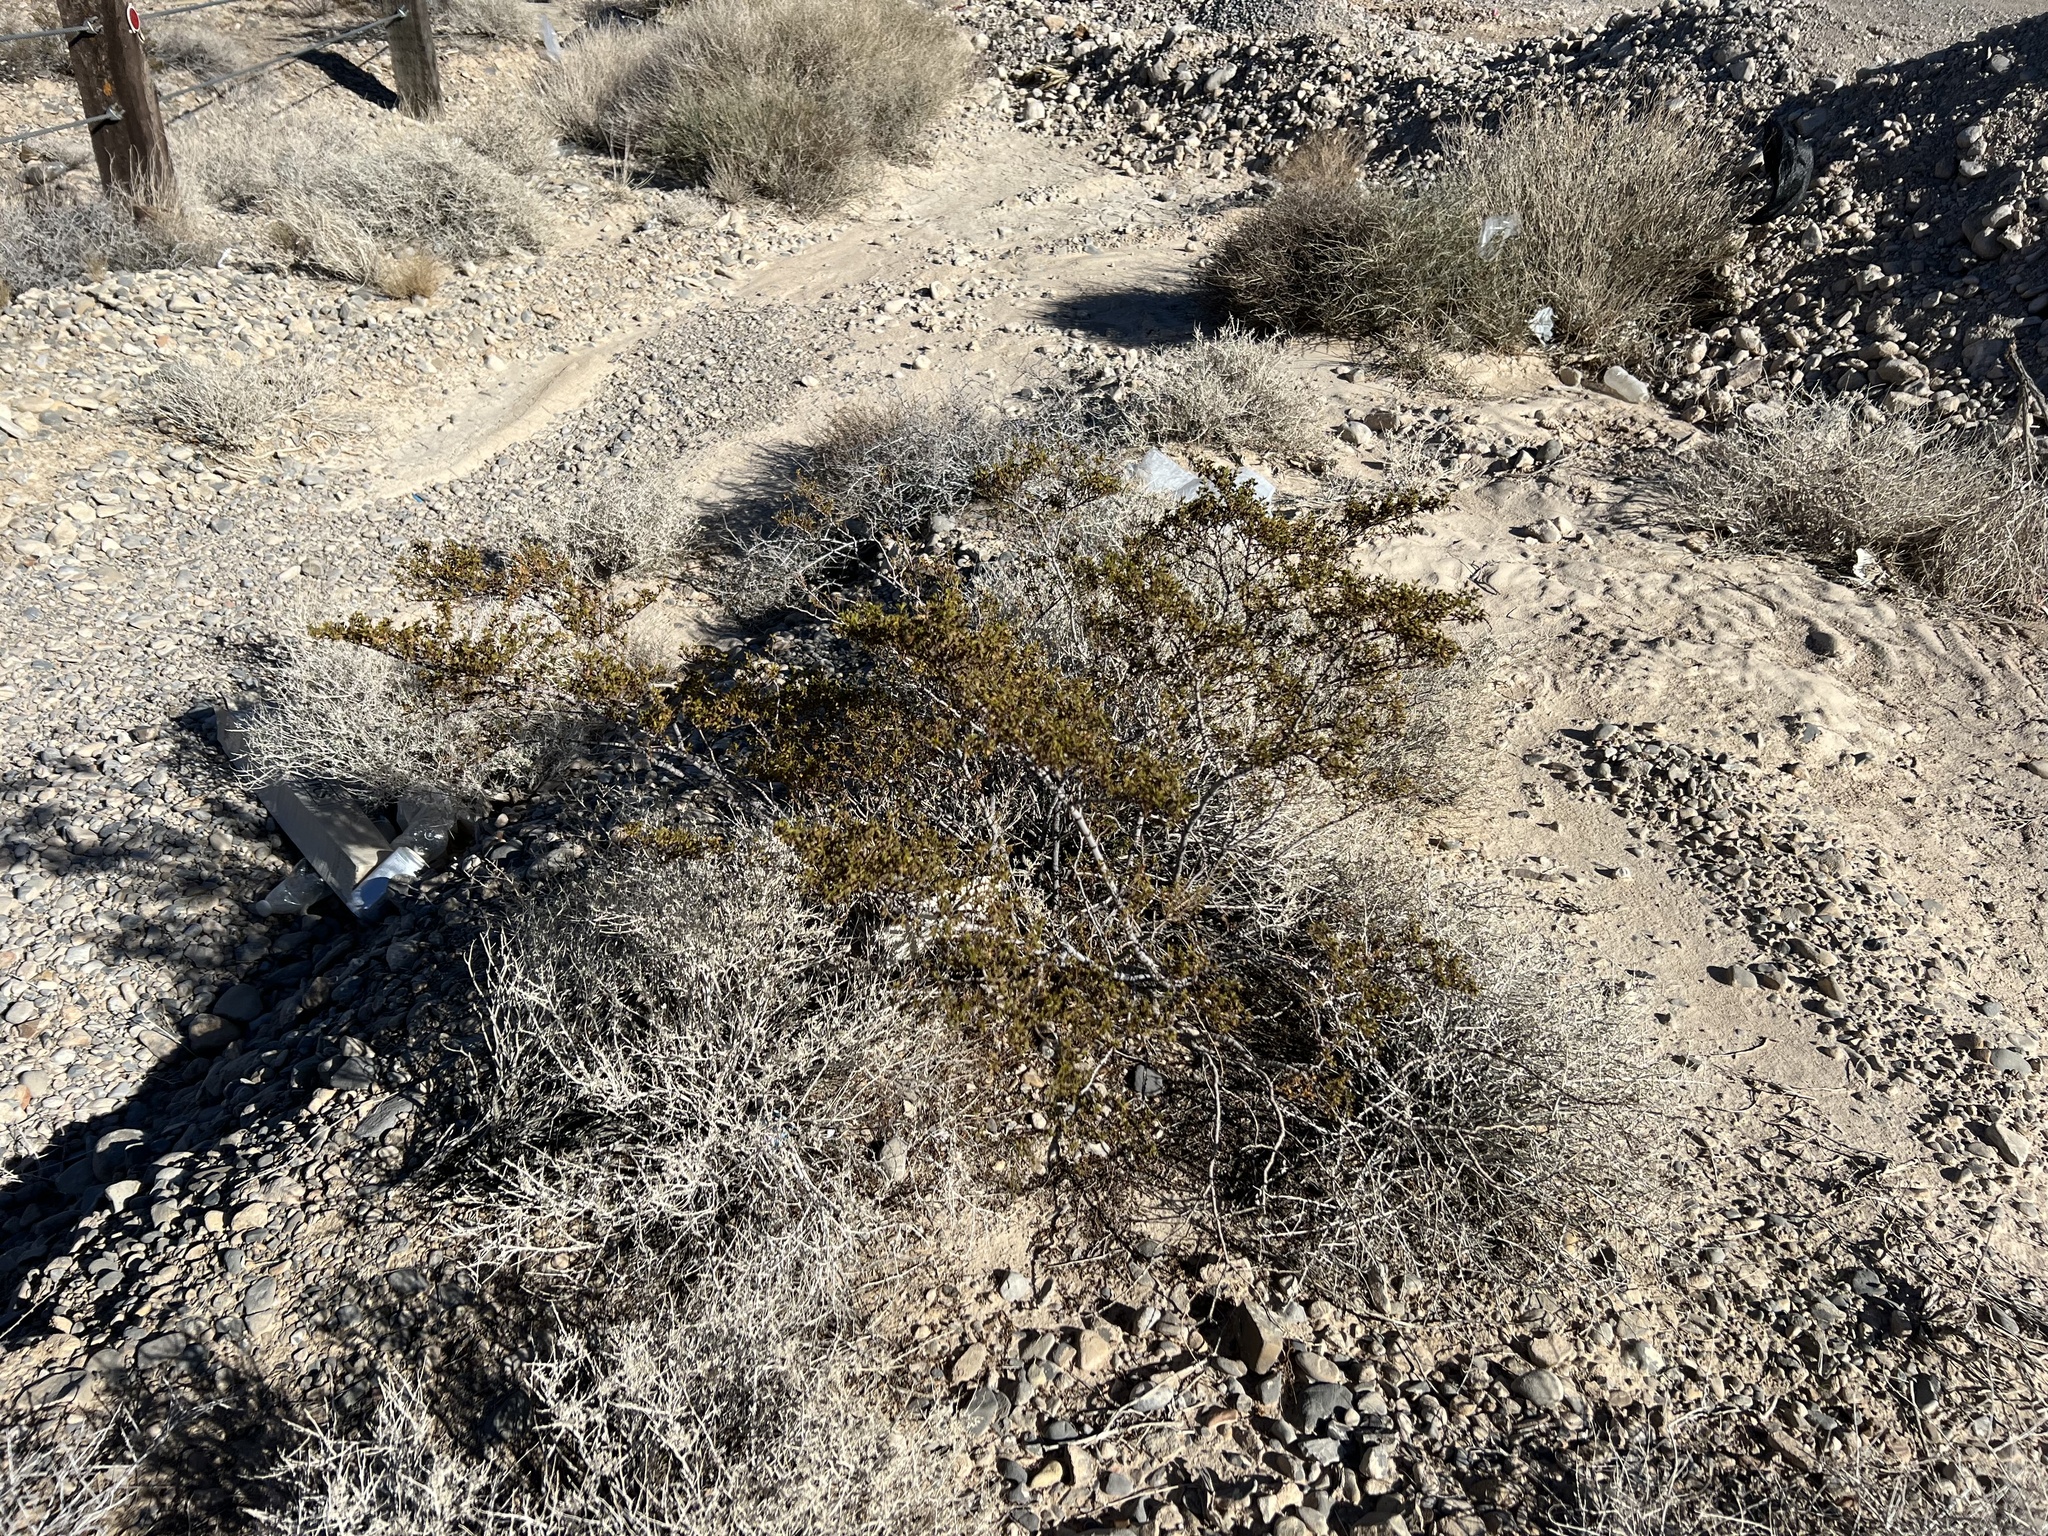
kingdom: Plantae
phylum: Tracheophyta
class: Magnoliopsida
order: Zygophyllales
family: Zygophyllaceae
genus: Larrea
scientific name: Larrea tridentata
